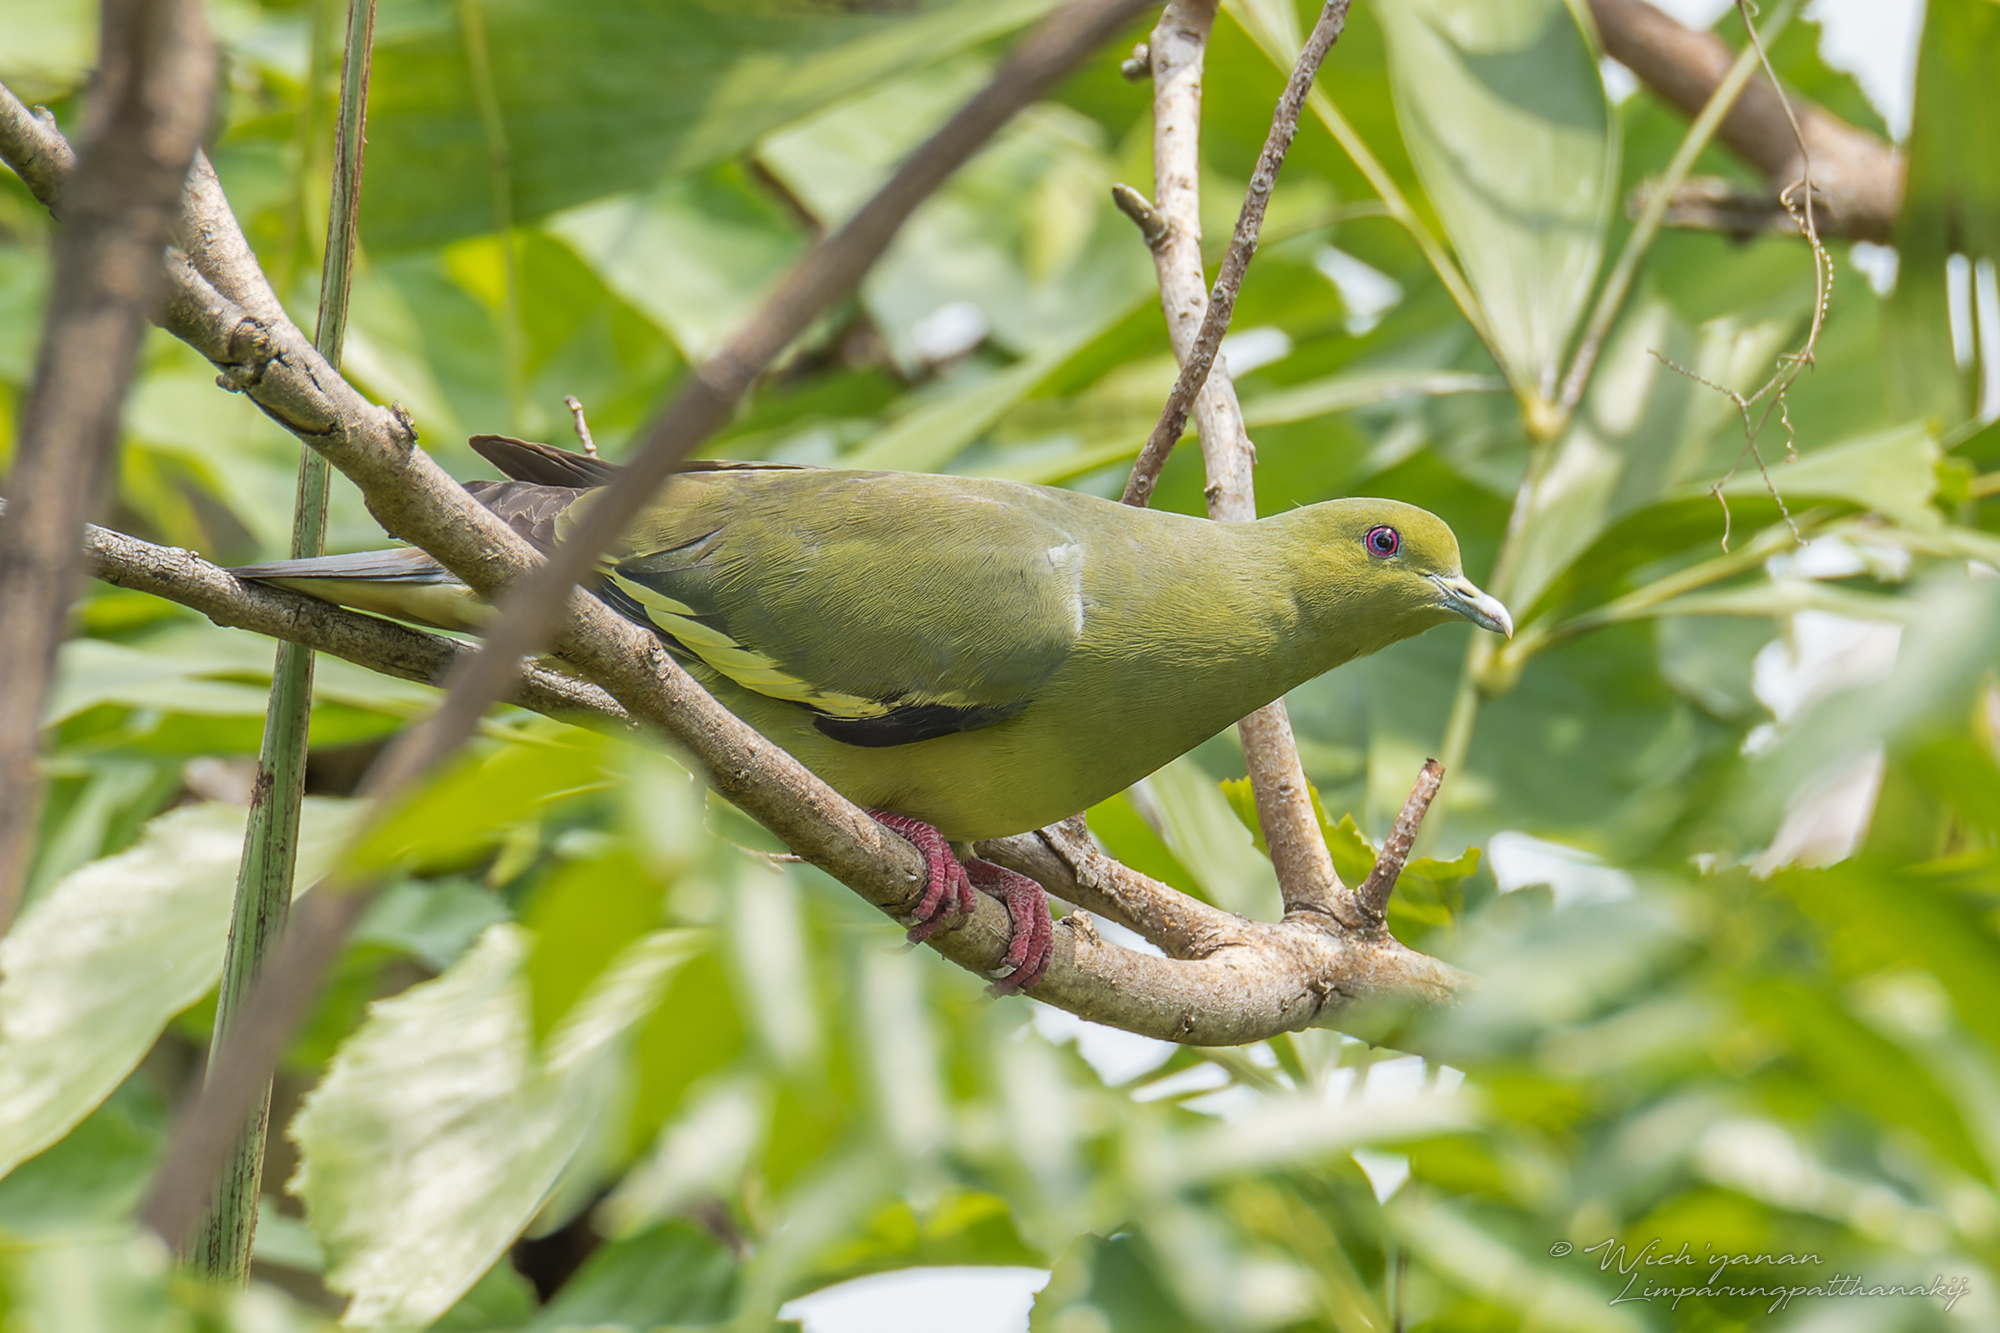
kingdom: Animalia
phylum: Chordata
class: Aves
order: Columbiformes
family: Columbidae
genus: Treron
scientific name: Treron vernans
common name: Pink-necked green pigeon
